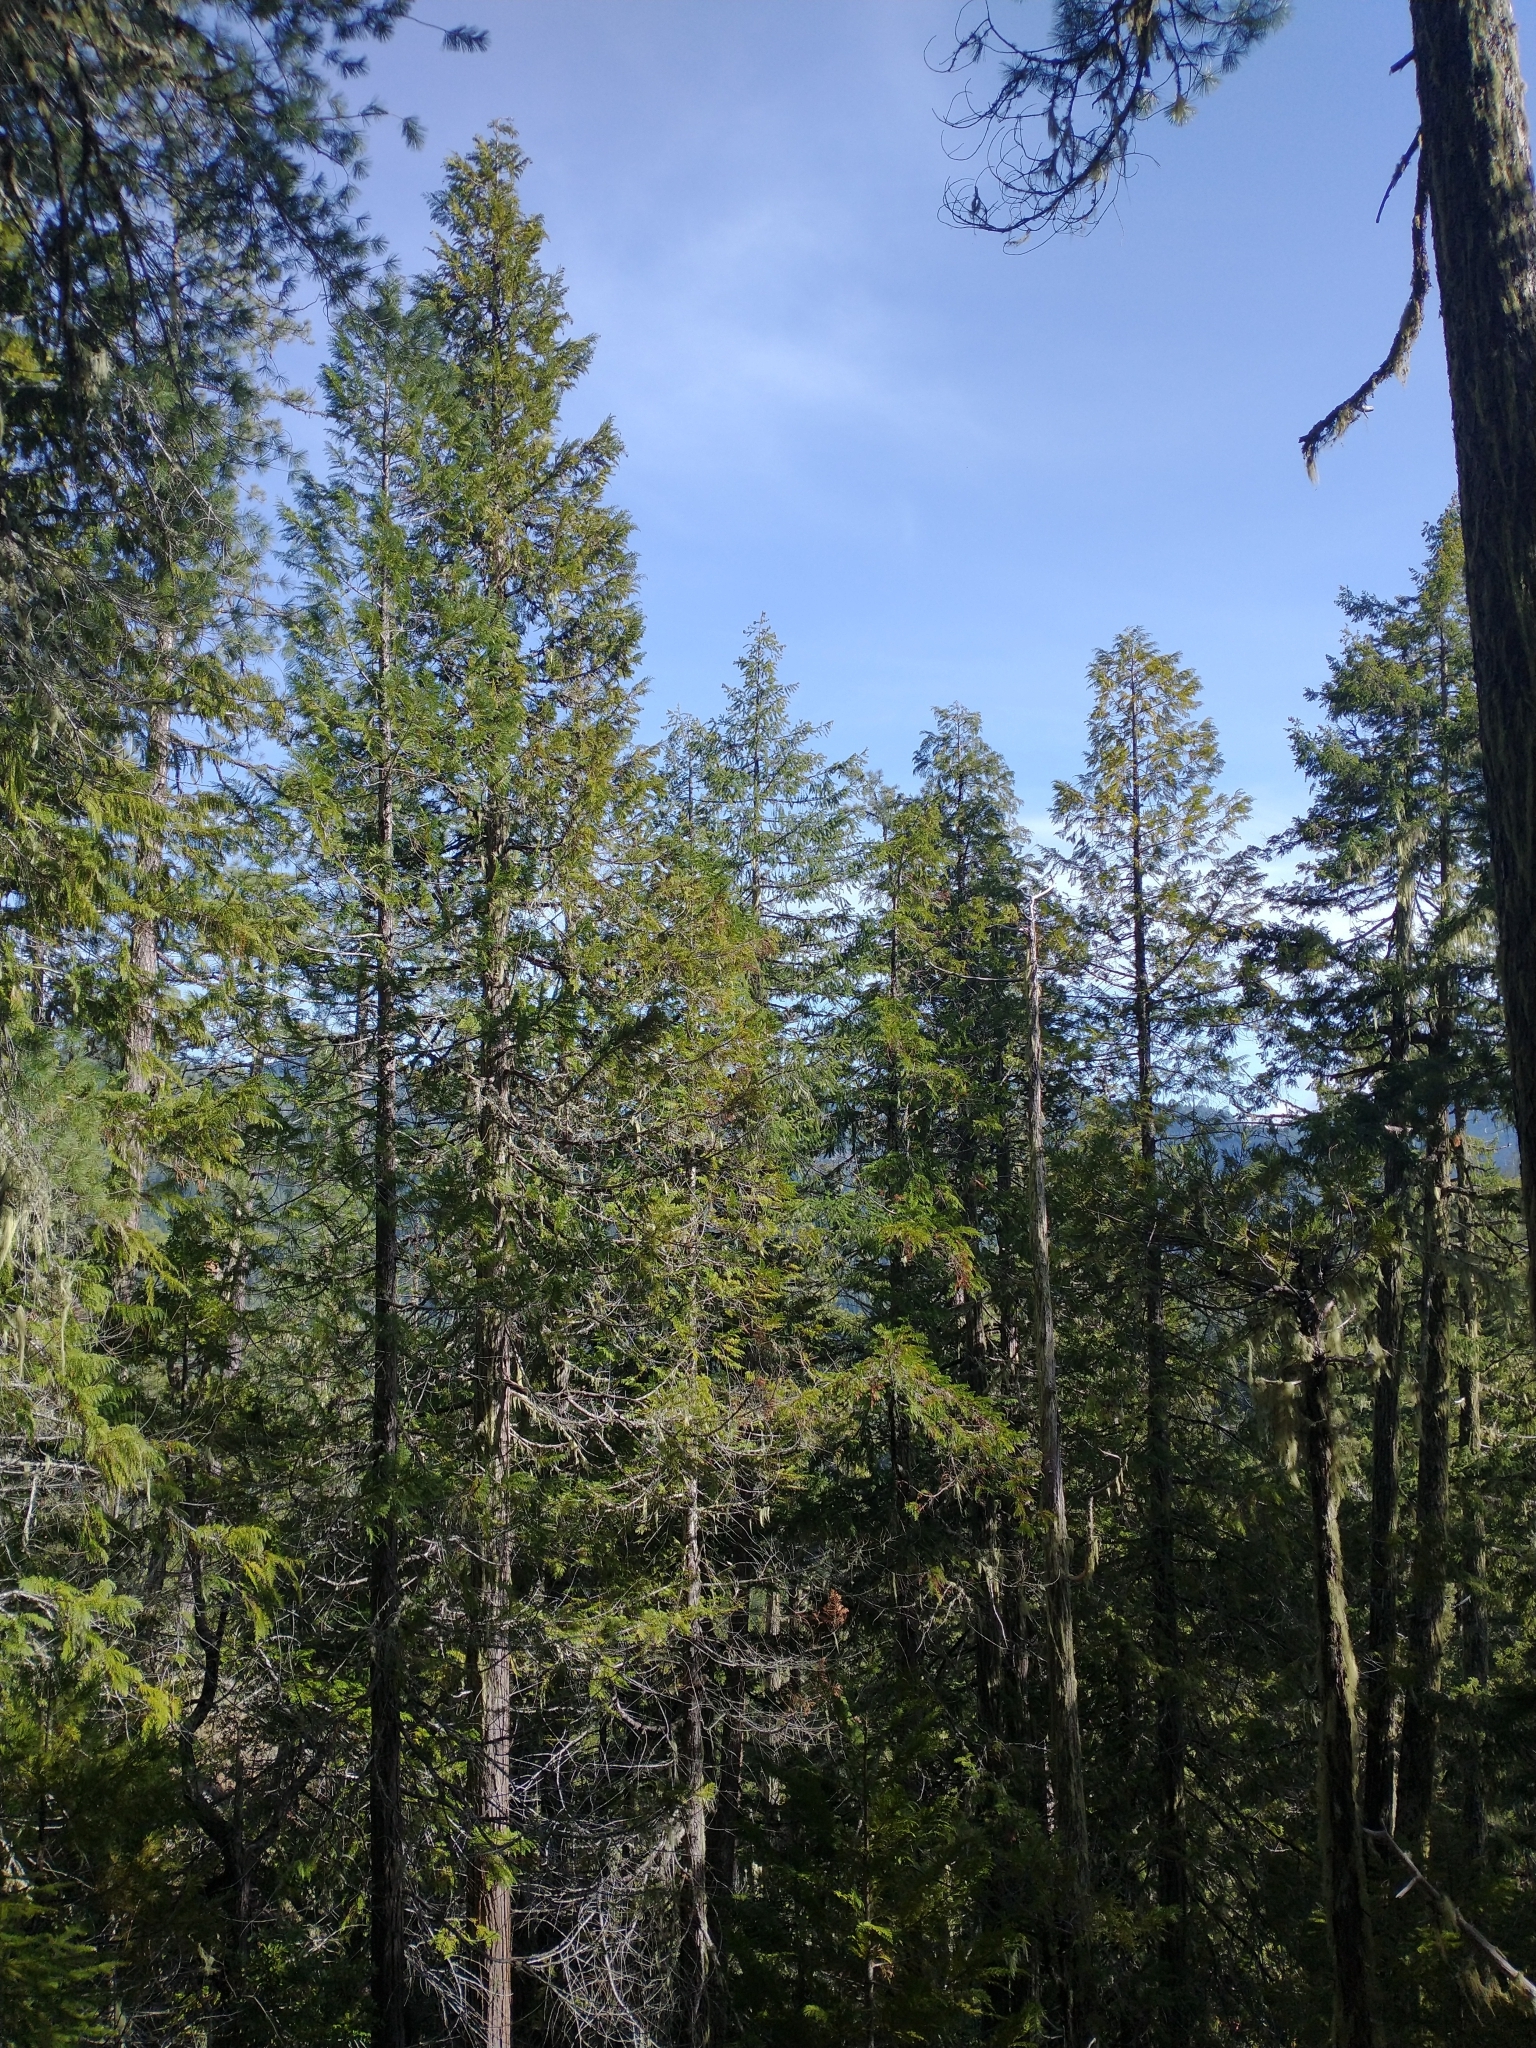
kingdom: Plantae
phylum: Tracheophyta
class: Pinopsida
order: Pinales
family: Cupressaceae
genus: Chamaecyparis
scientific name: Chamaecyparis lawsoniana
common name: Lawson's cypress
